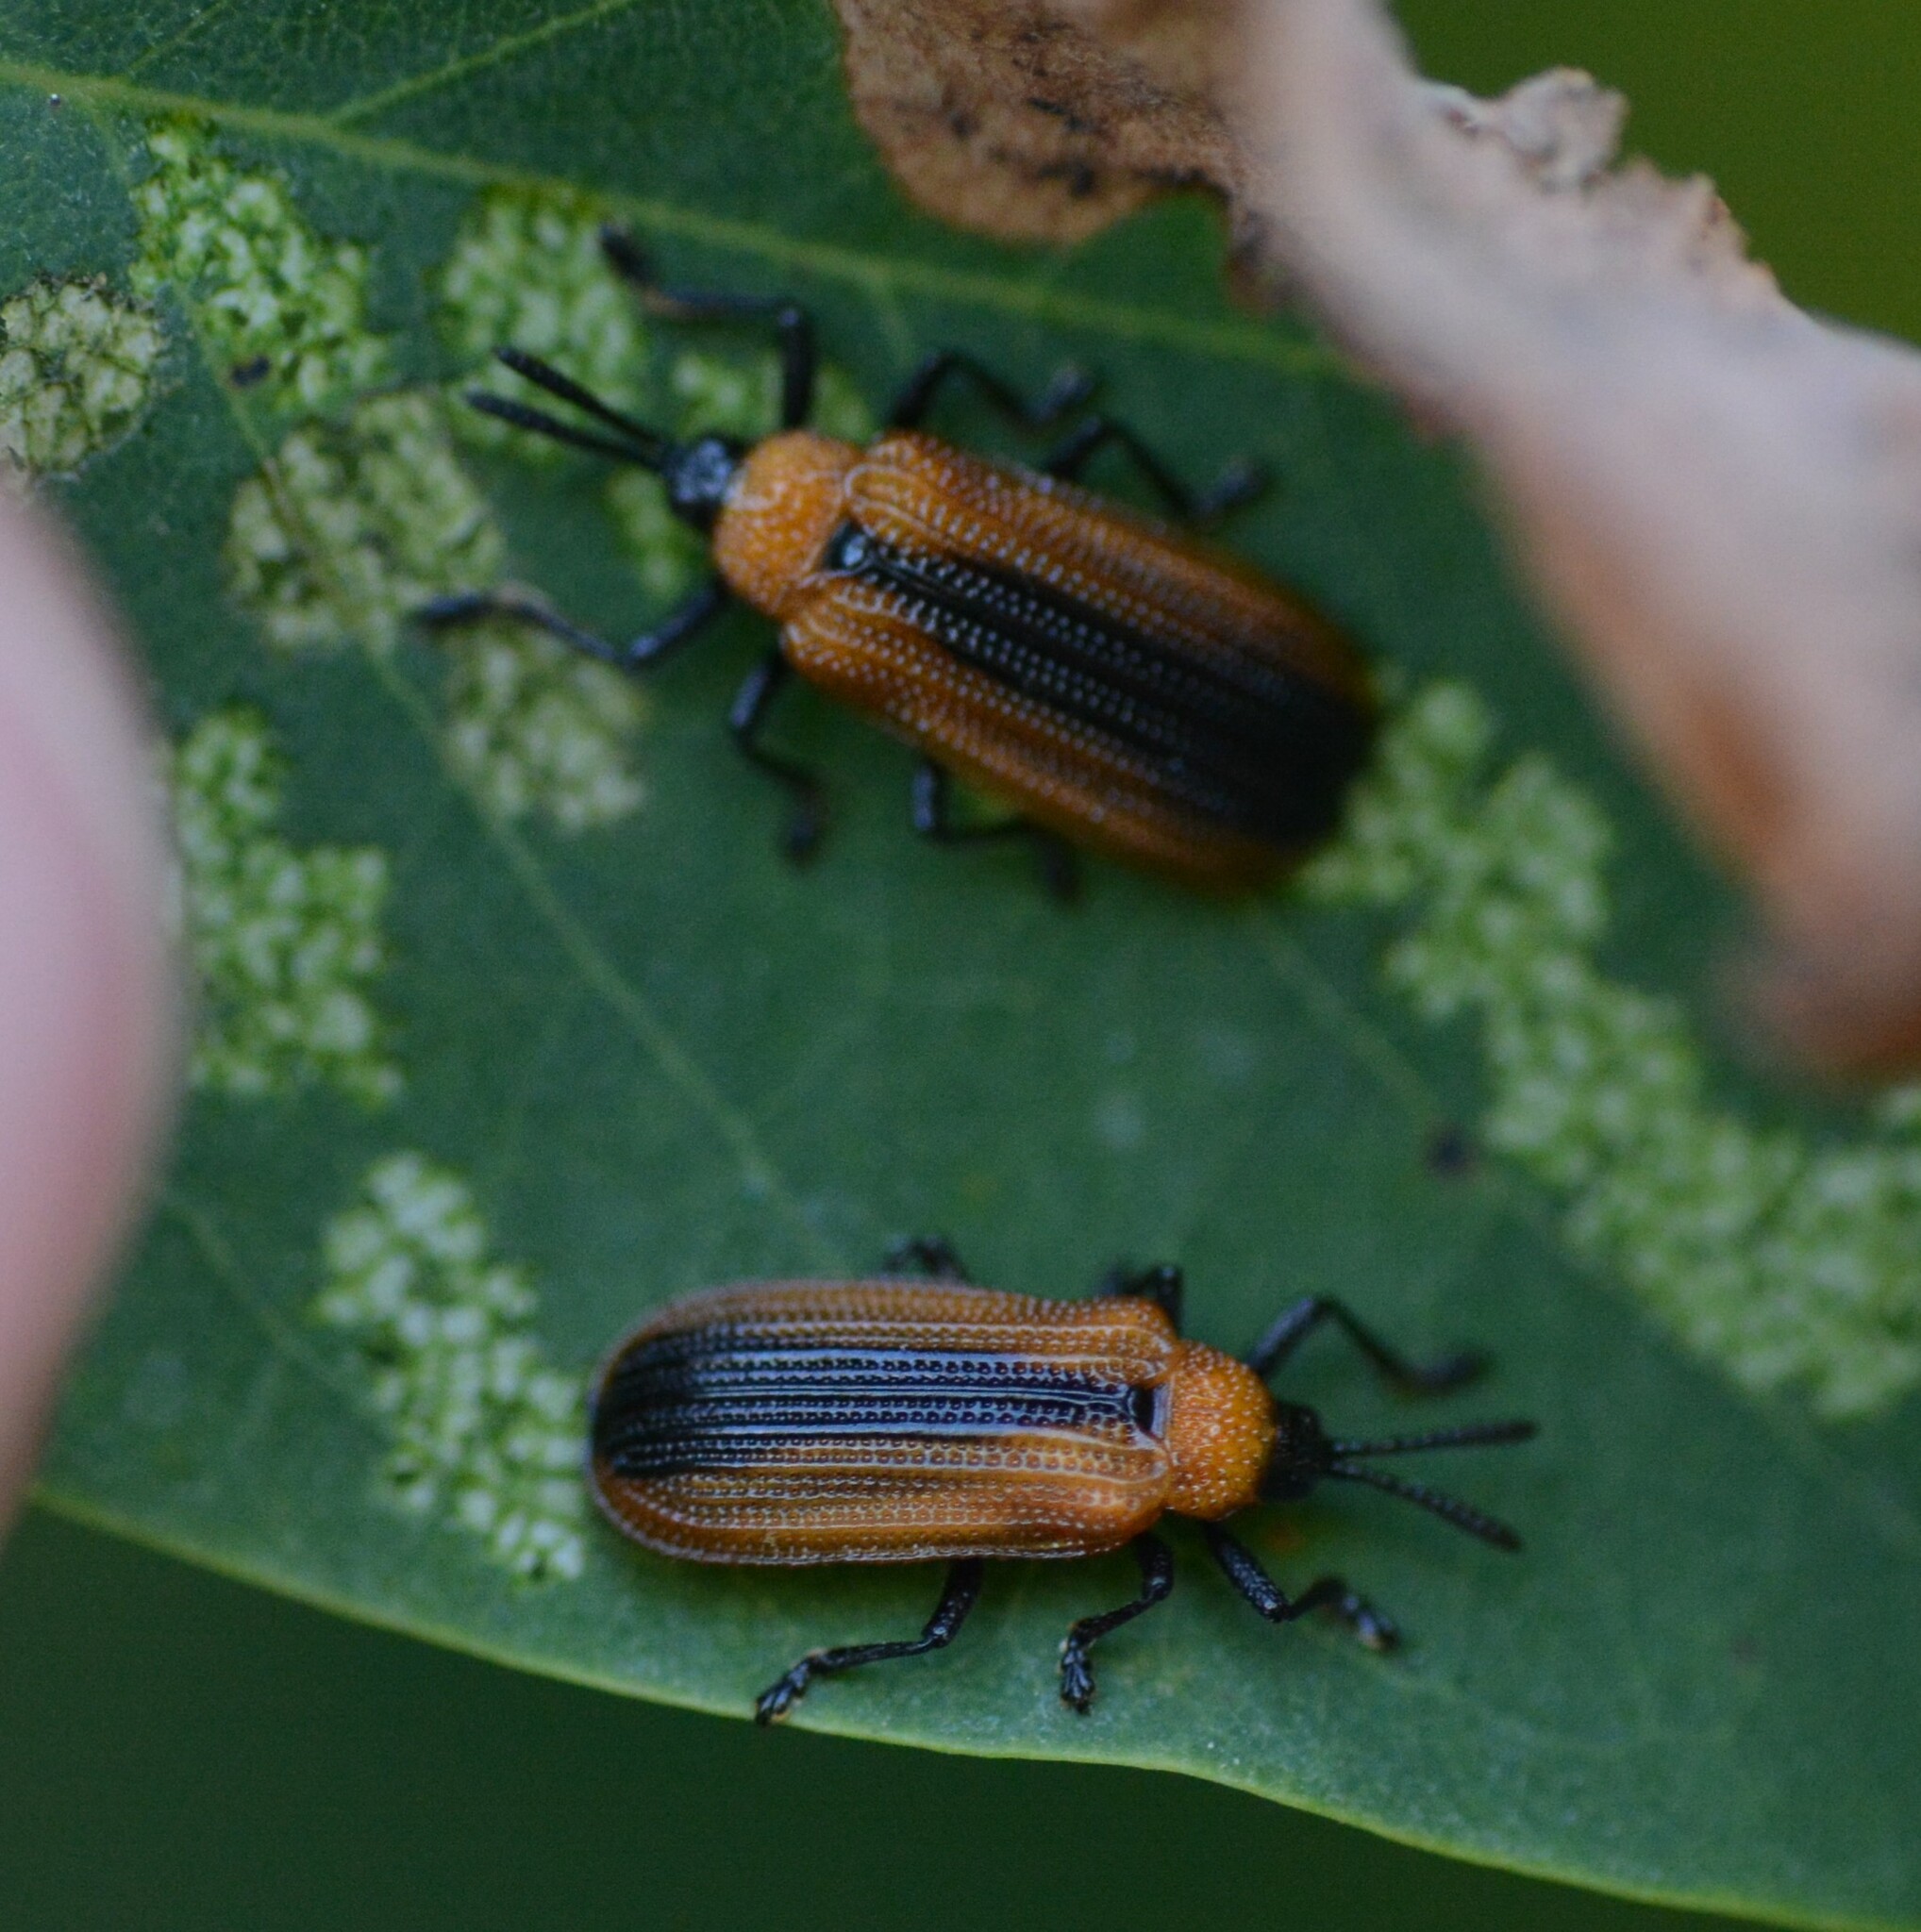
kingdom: Animalia
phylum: Arthropoda
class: Insecta
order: Coleoptera
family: Chrysomelidae
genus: Odontota
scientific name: Odontota dorsalis
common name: Locust leaf-miner beetle
